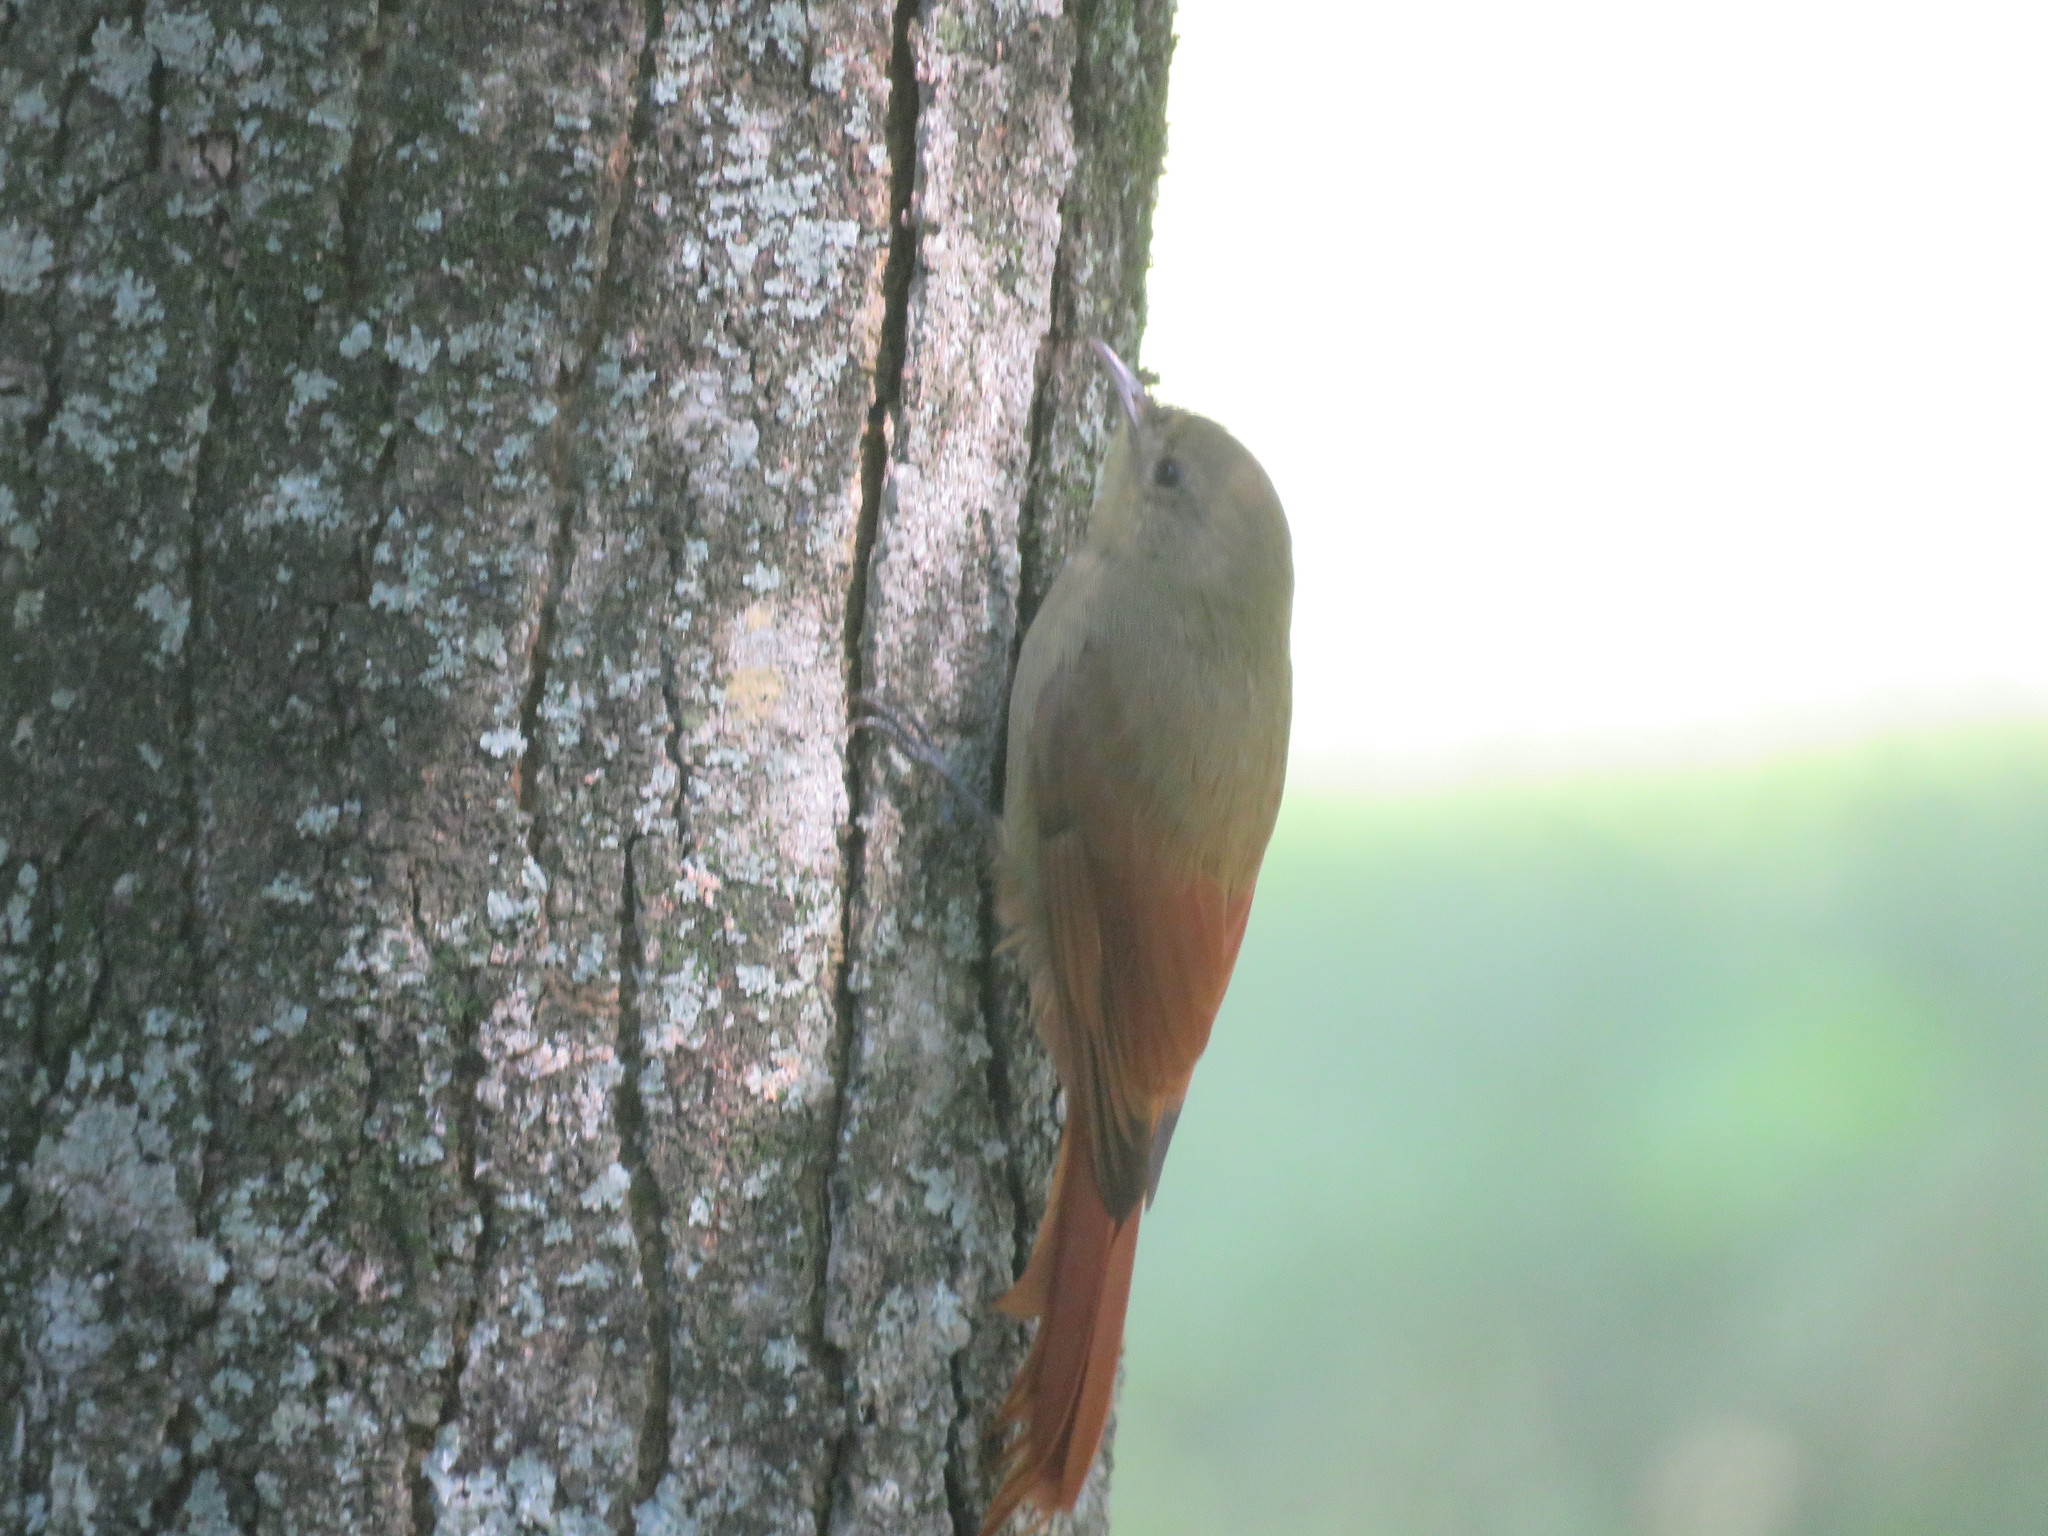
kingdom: Animalia
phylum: Chordata
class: Aves
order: Passeriformes
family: Furnariidae
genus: Sittasomus
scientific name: Sittasomus griseicapillus
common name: Olivaceous woodcreeper
